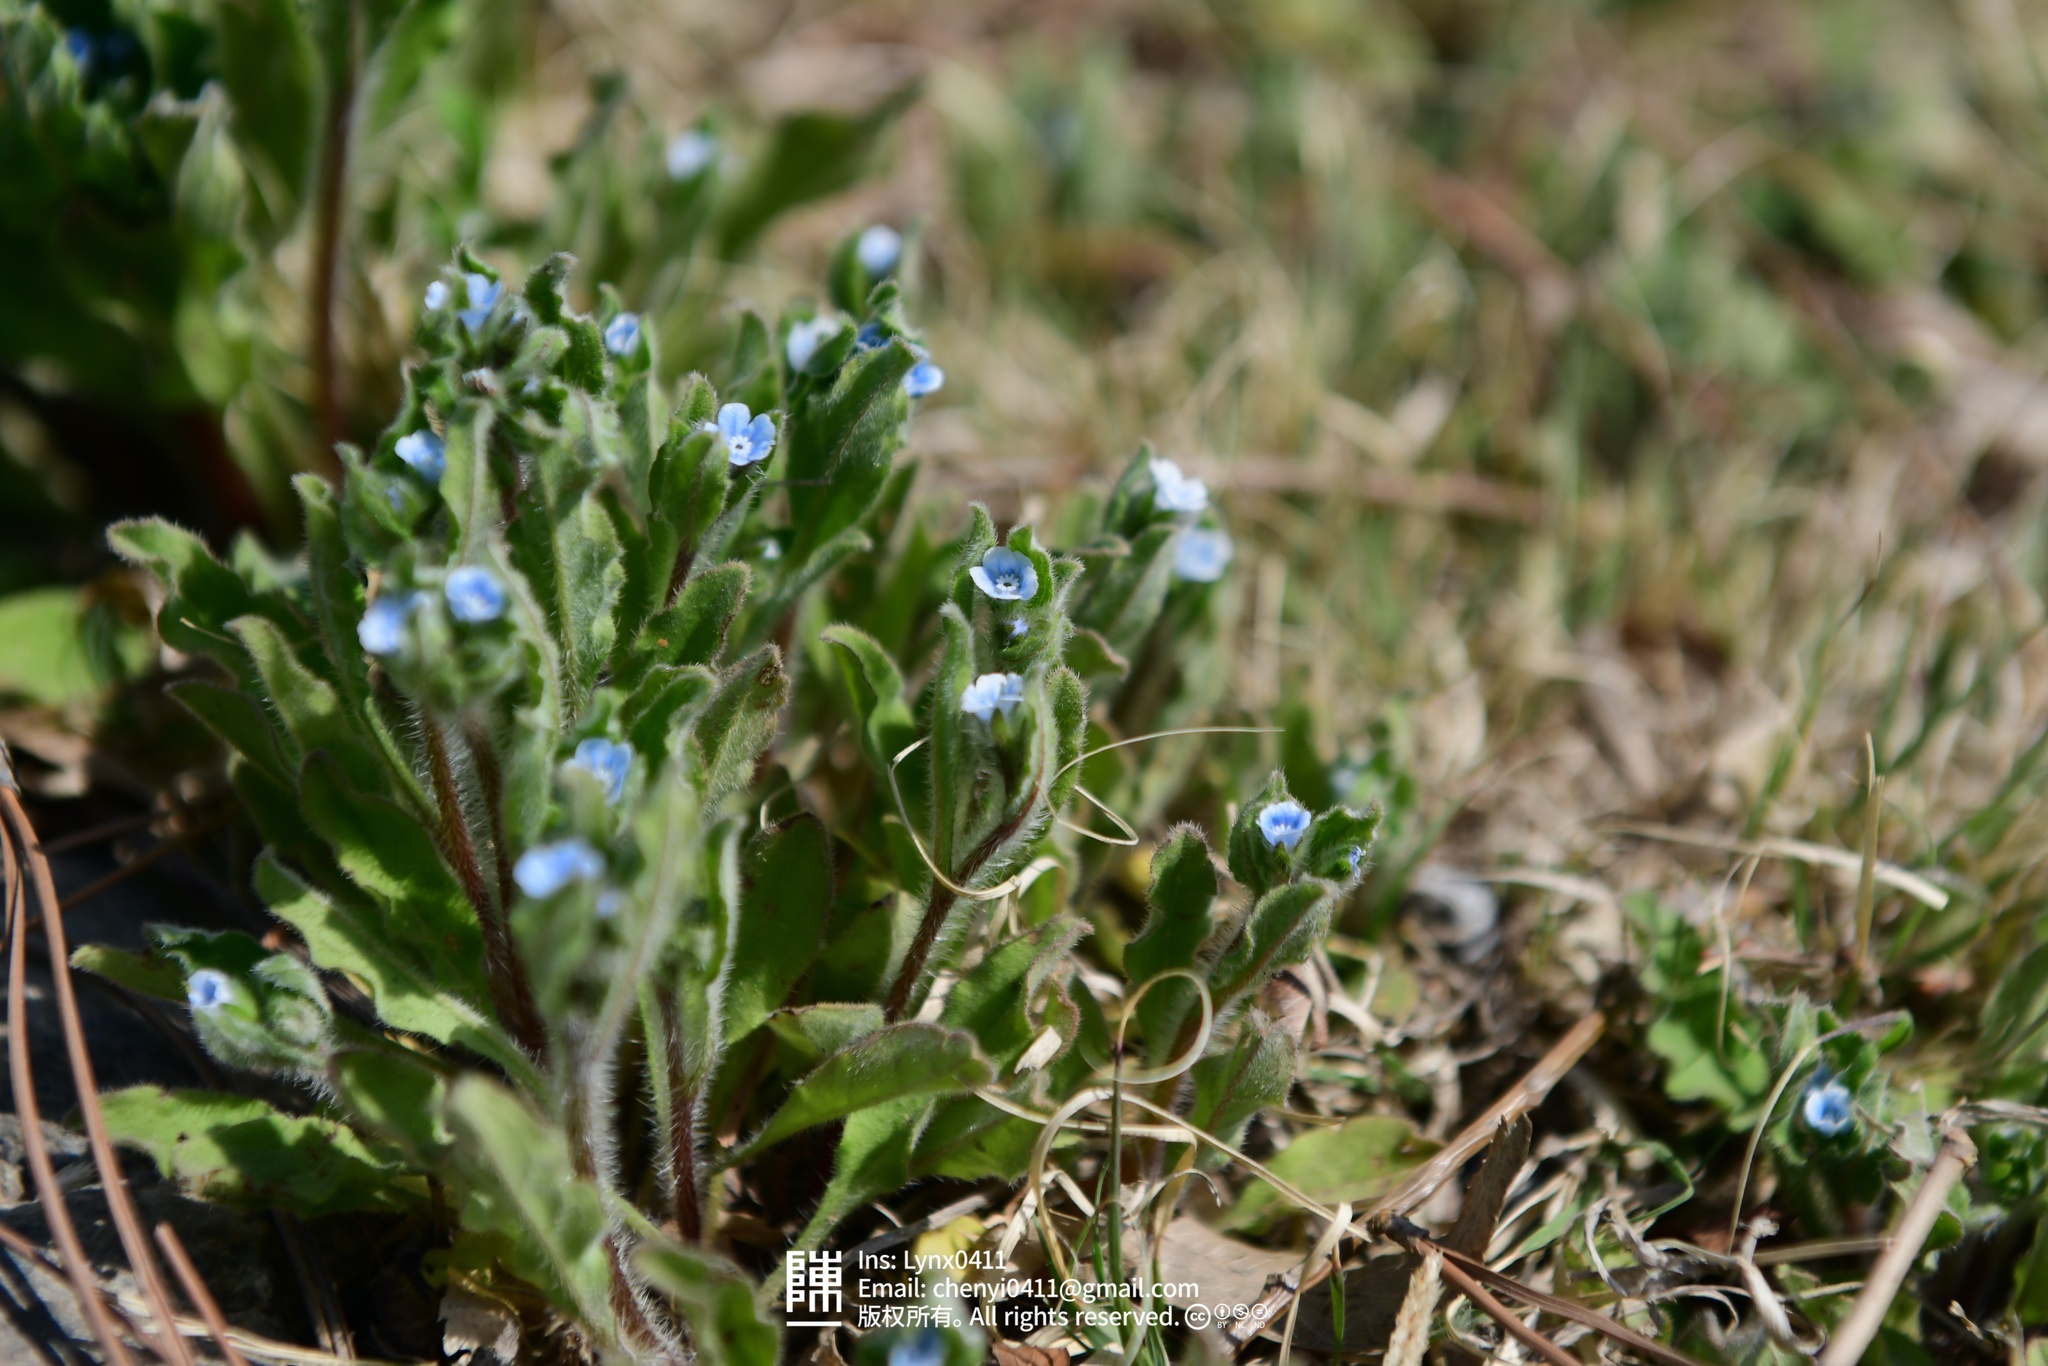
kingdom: Plantae
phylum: Tracheophyta
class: Magnoliopsida
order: Boraginales
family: Boraginaceae
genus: Bothriospermum
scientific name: Bothriospermum chinense
